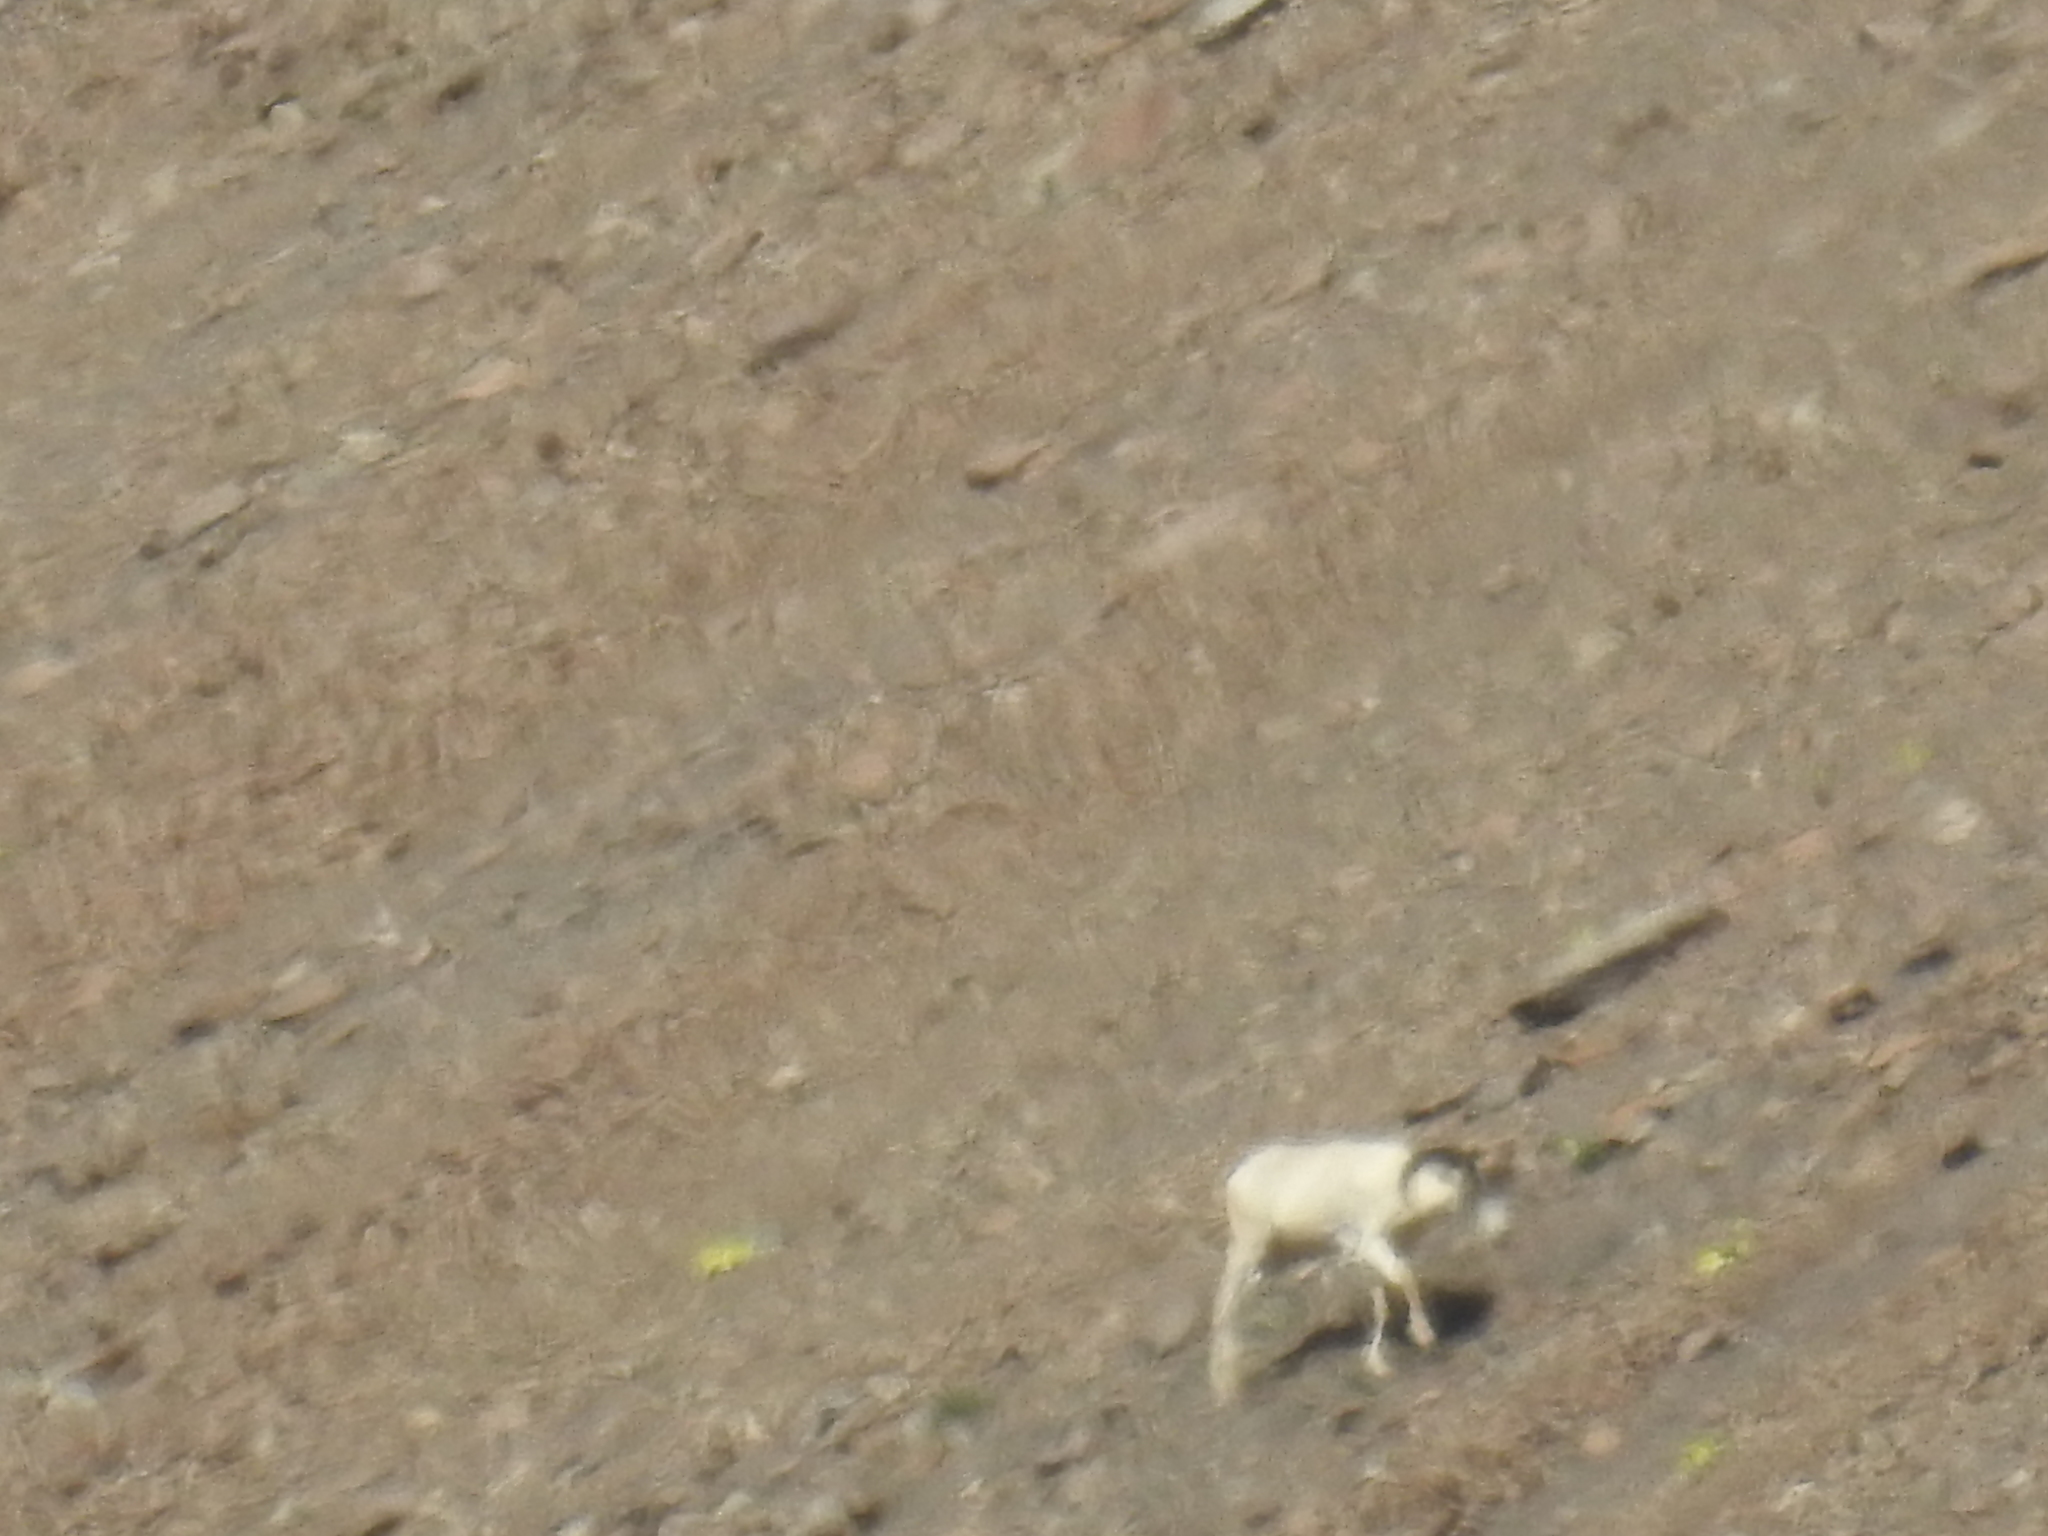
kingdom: Animalia
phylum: Chordata
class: Mammalia
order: Artiodactyla
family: Bovidae
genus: Ovis
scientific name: Ovis dalli
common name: Dall's sheep
